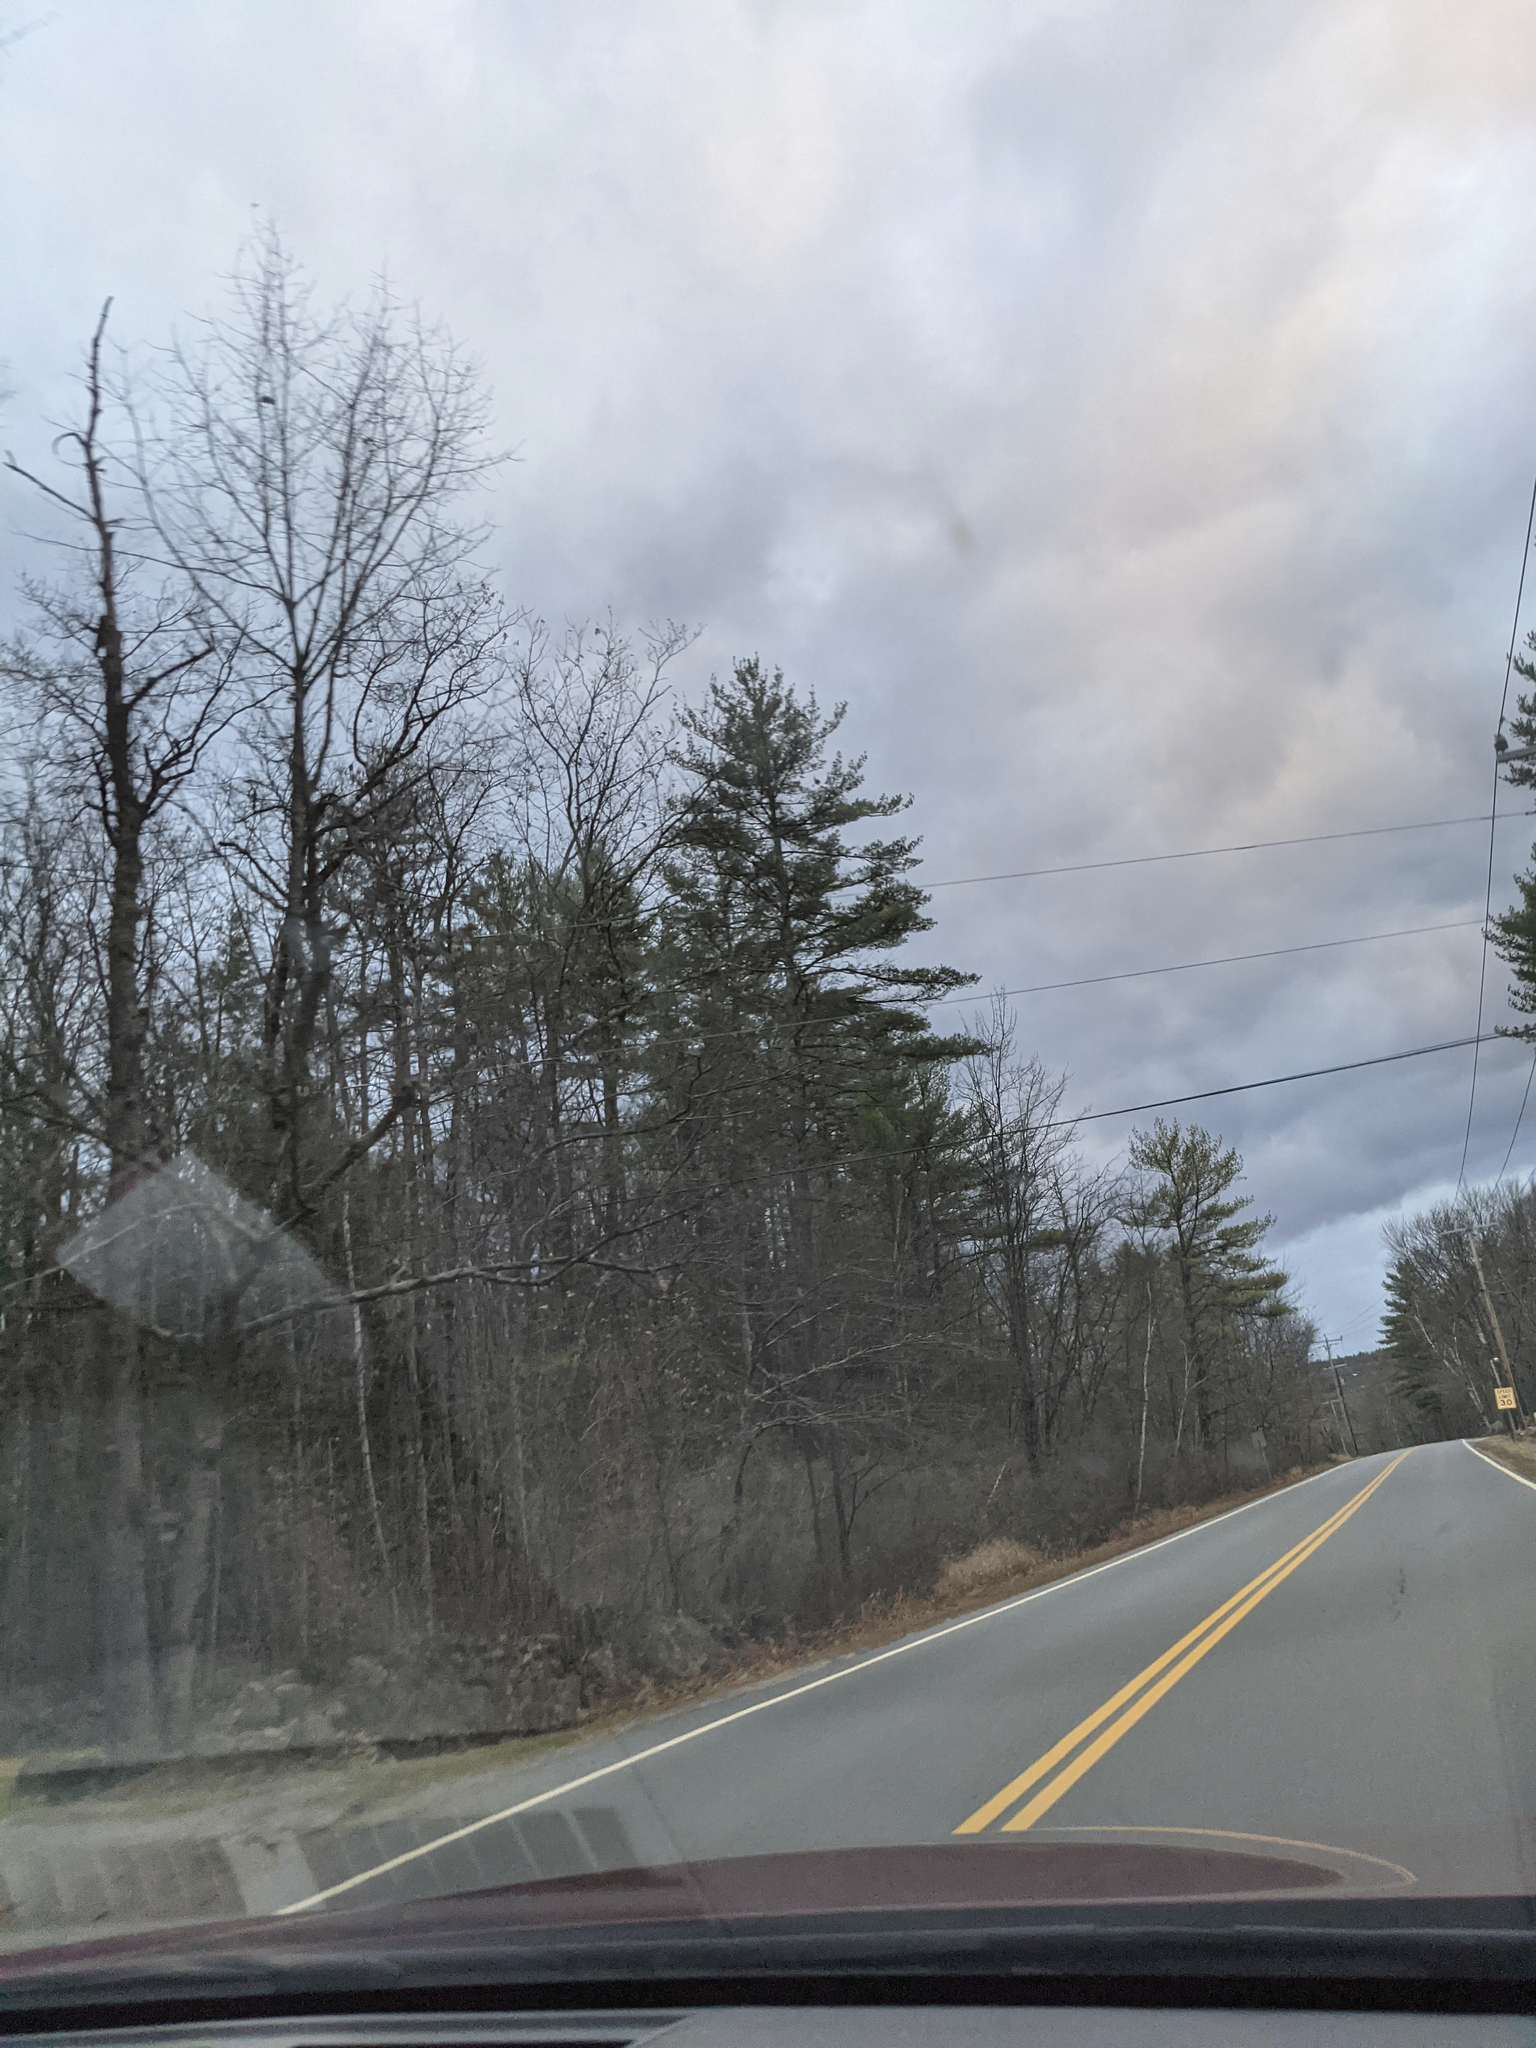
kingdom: Plantae
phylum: Tracheophyta
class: Pinopsida
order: Pinales
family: Pinaceae
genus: Pinus
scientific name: Pinus strobus
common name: Weymouth pine
